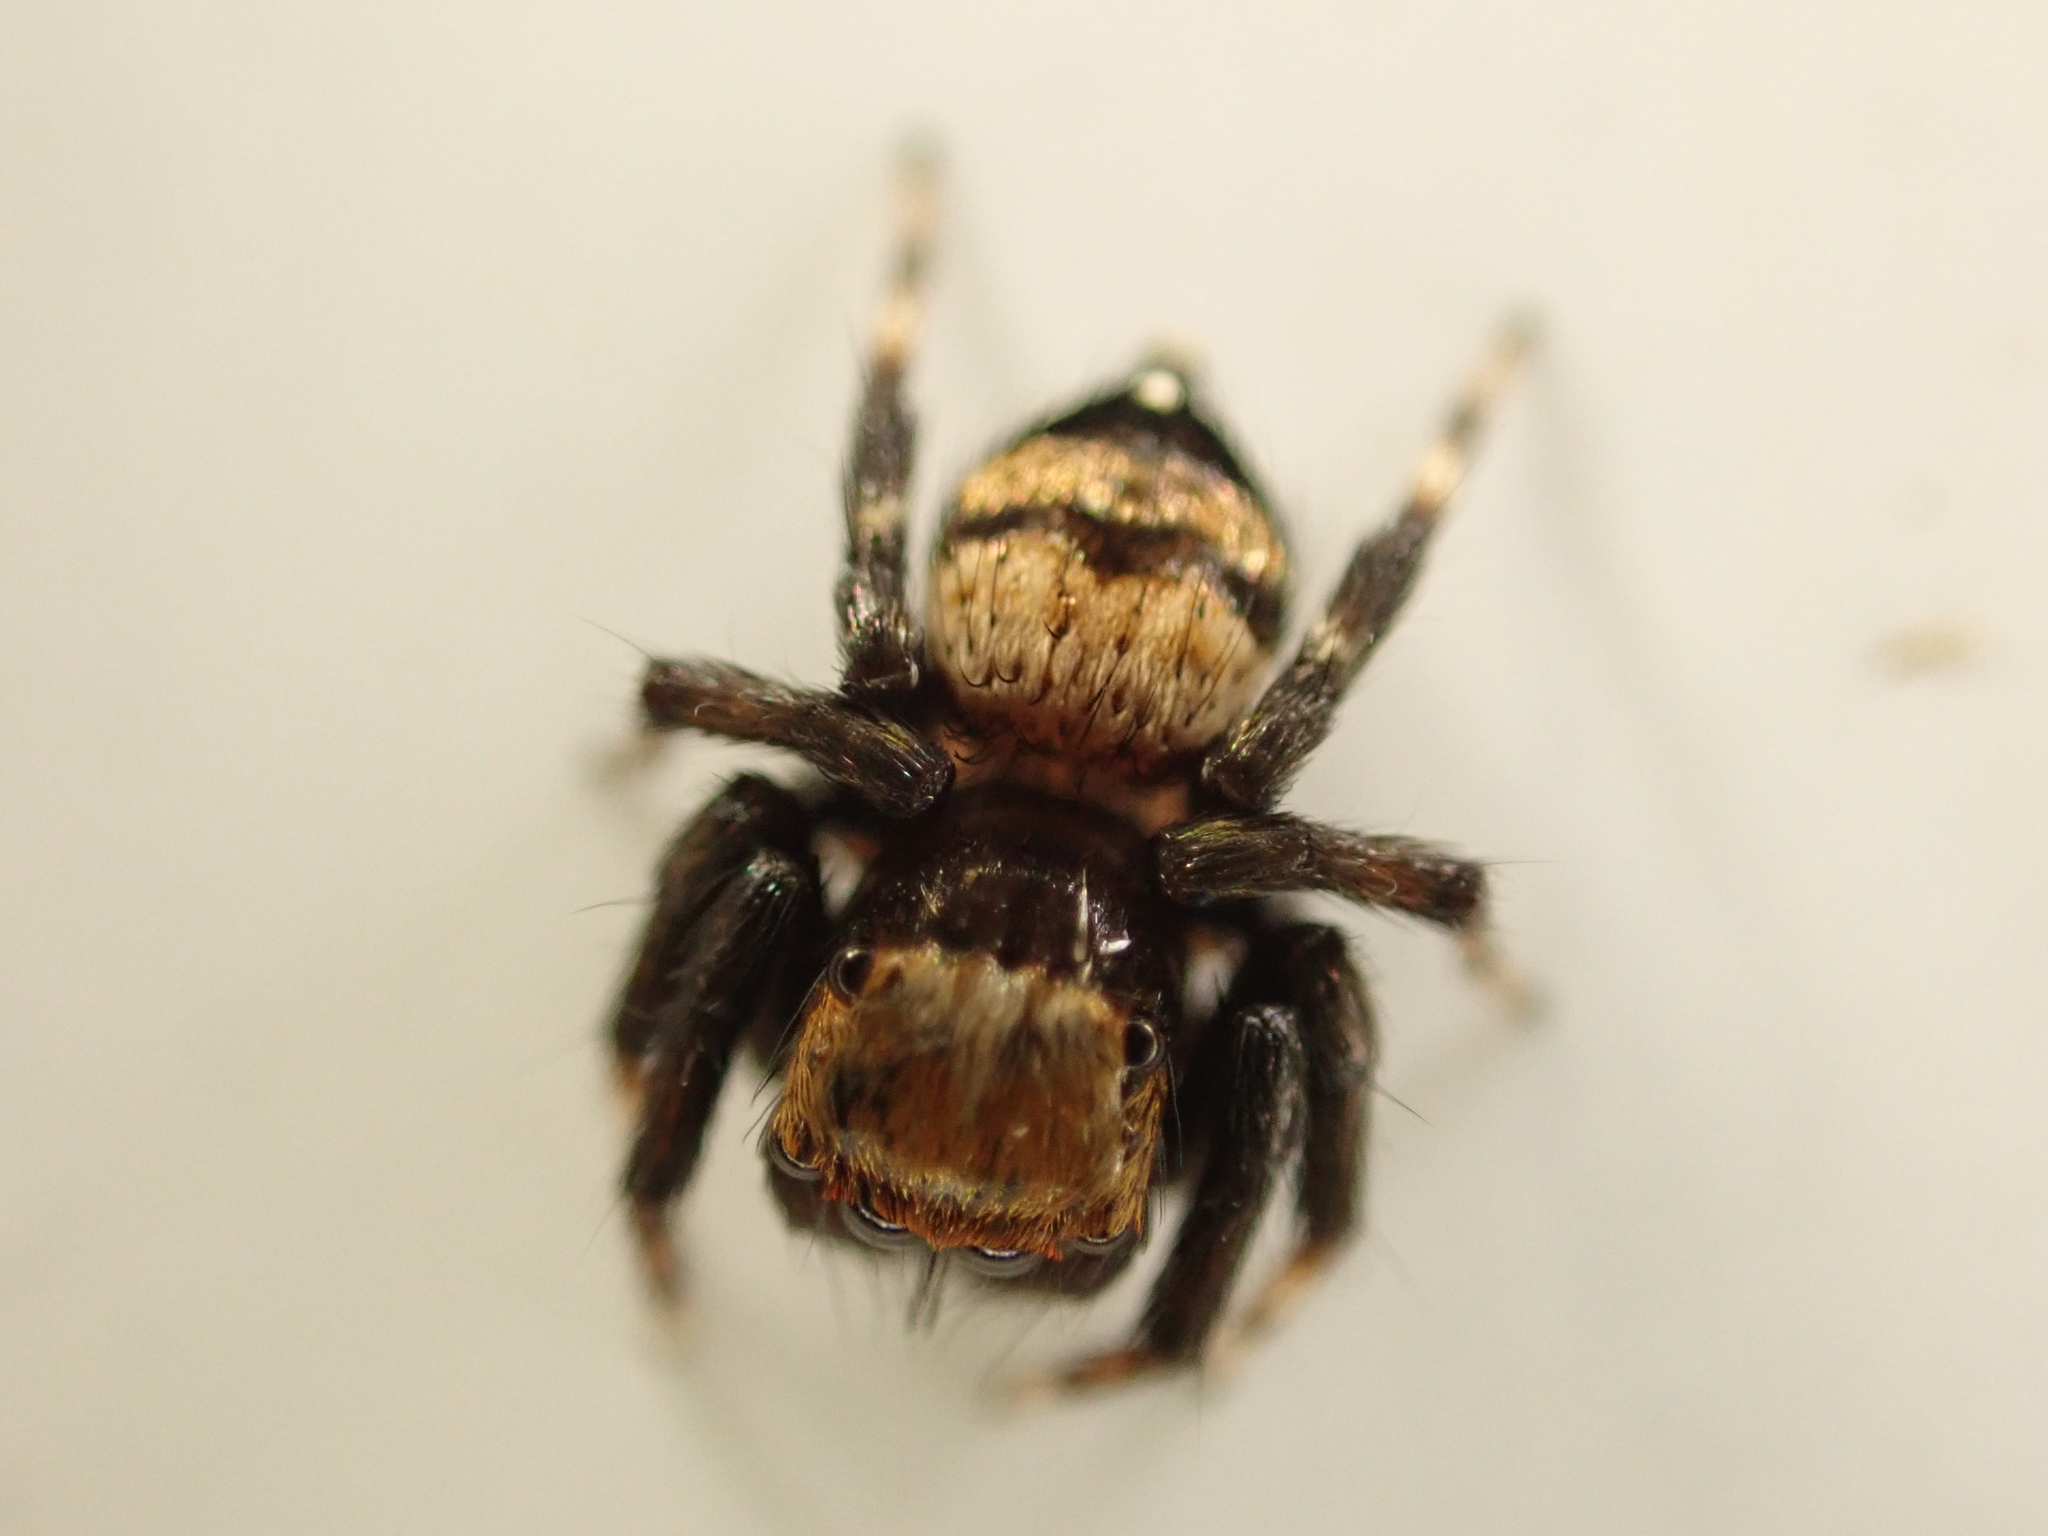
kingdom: Animalia
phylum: Arthropoda
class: Arachnida
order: Araneae
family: Salticidae
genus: Thorelliola
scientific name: Thorelliola ensifera
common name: Jumping spider
